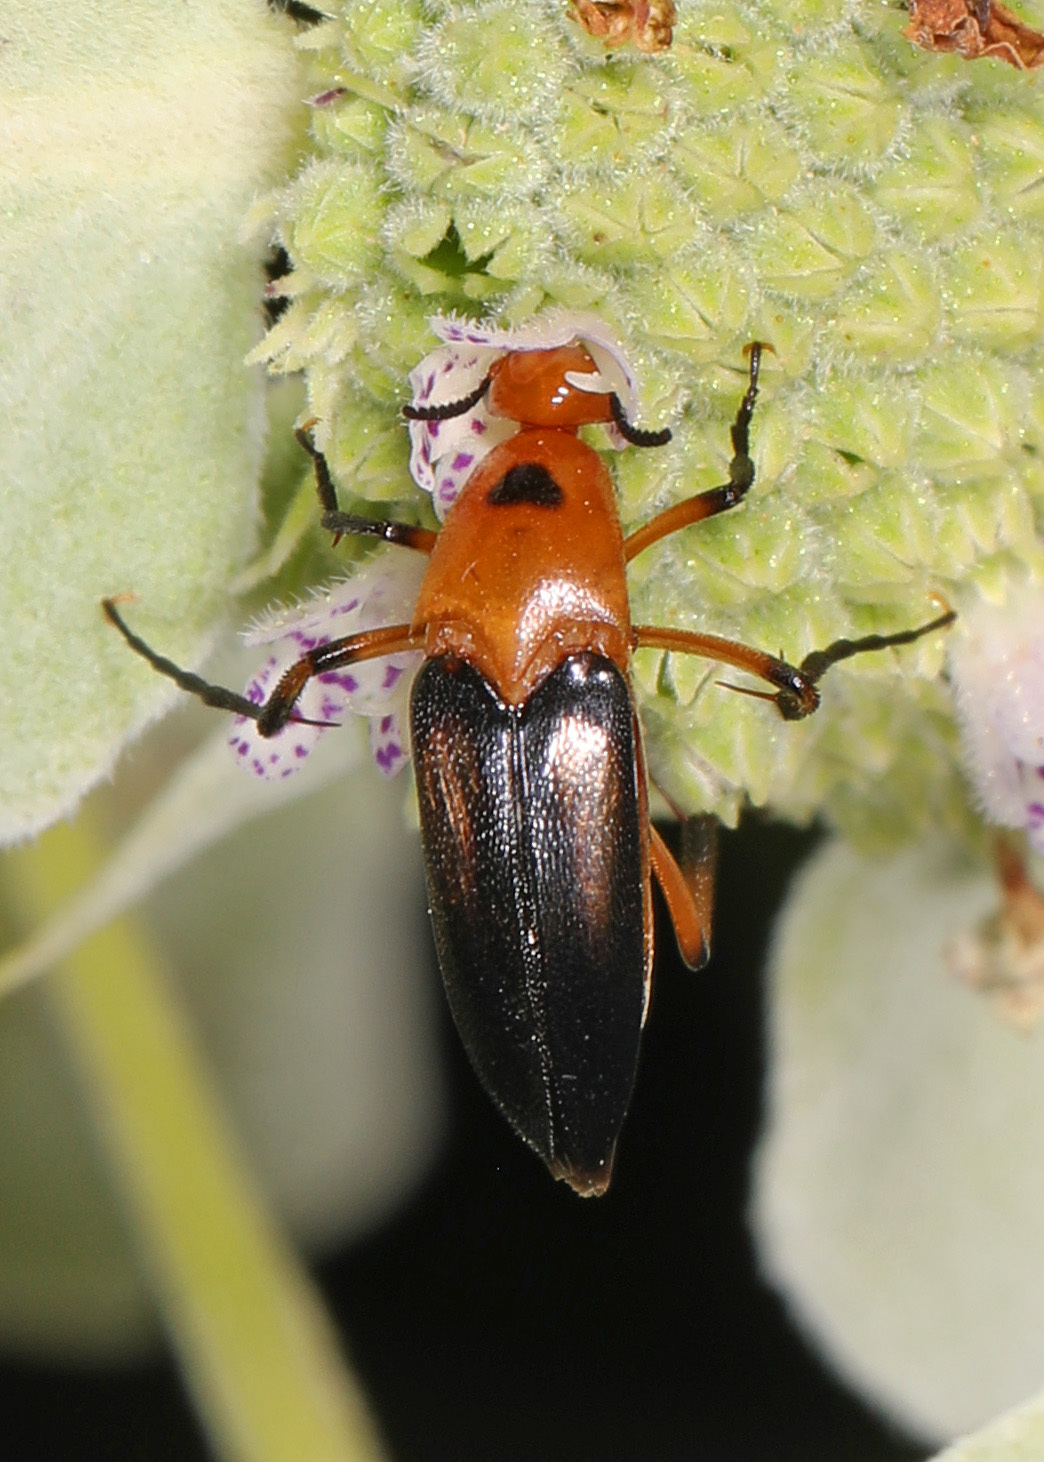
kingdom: Animalia
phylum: Arthropoda
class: Insecta
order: Coleoptera
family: Ripiphoridae
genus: Macrosiagon
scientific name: Macrosiagon limbatum
